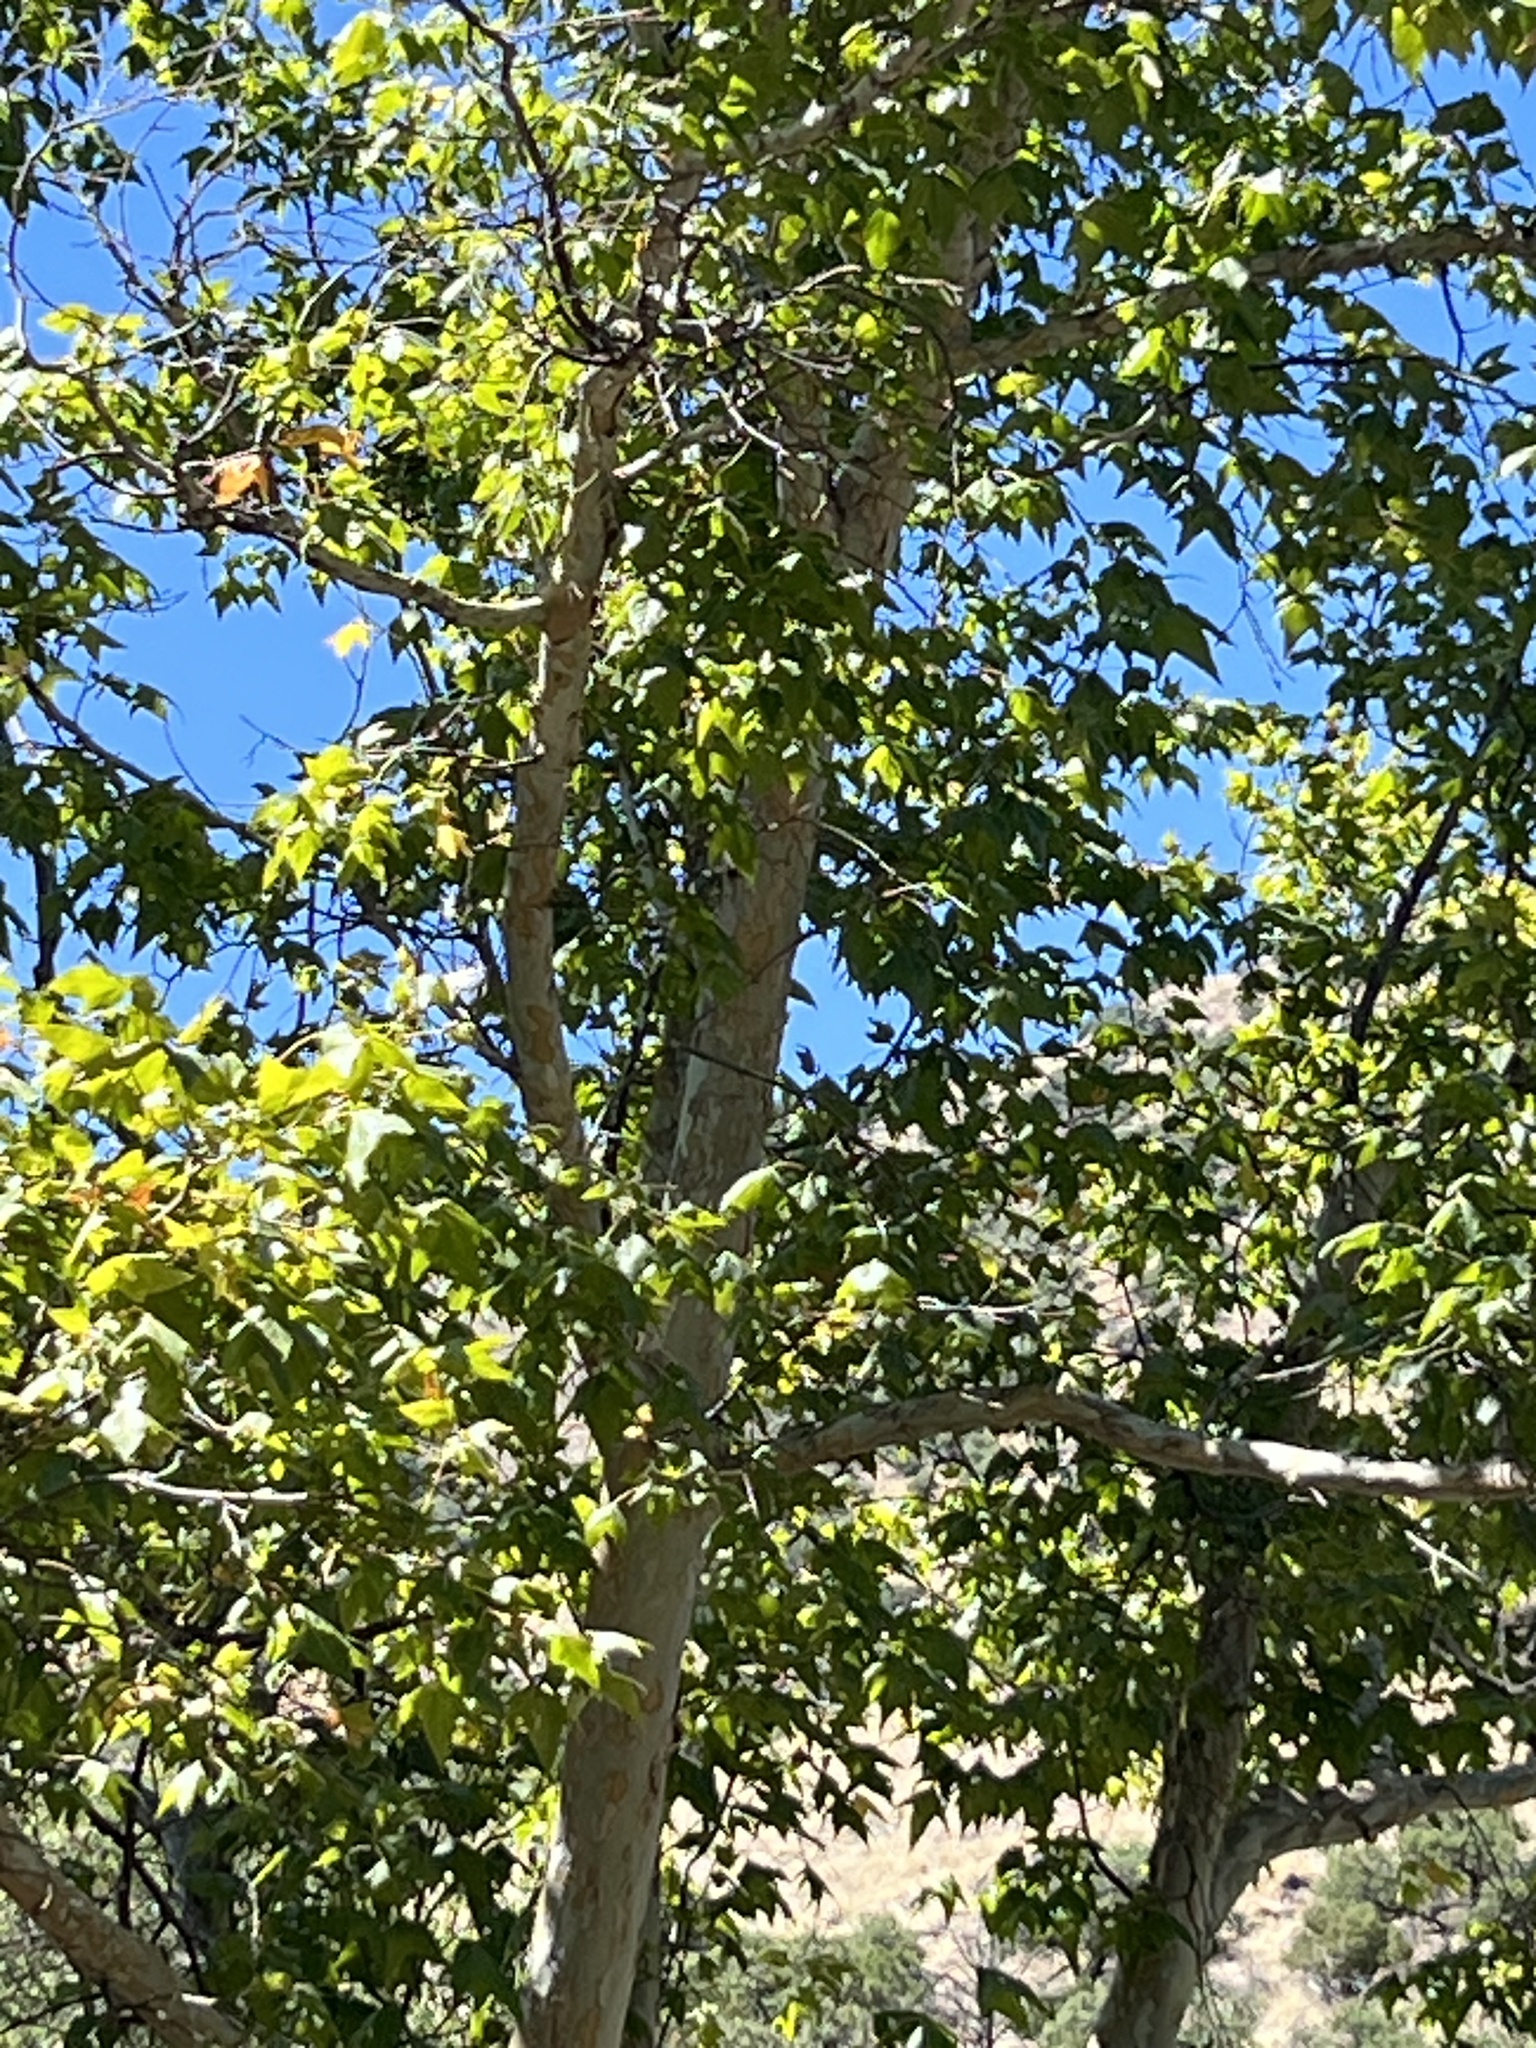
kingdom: Plantae
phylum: Tracheophyta
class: Magnoliopsida
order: Proteales
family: Platanaceae
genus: Platanus
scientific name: Platanus wrightii
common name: Arizona sycamore
